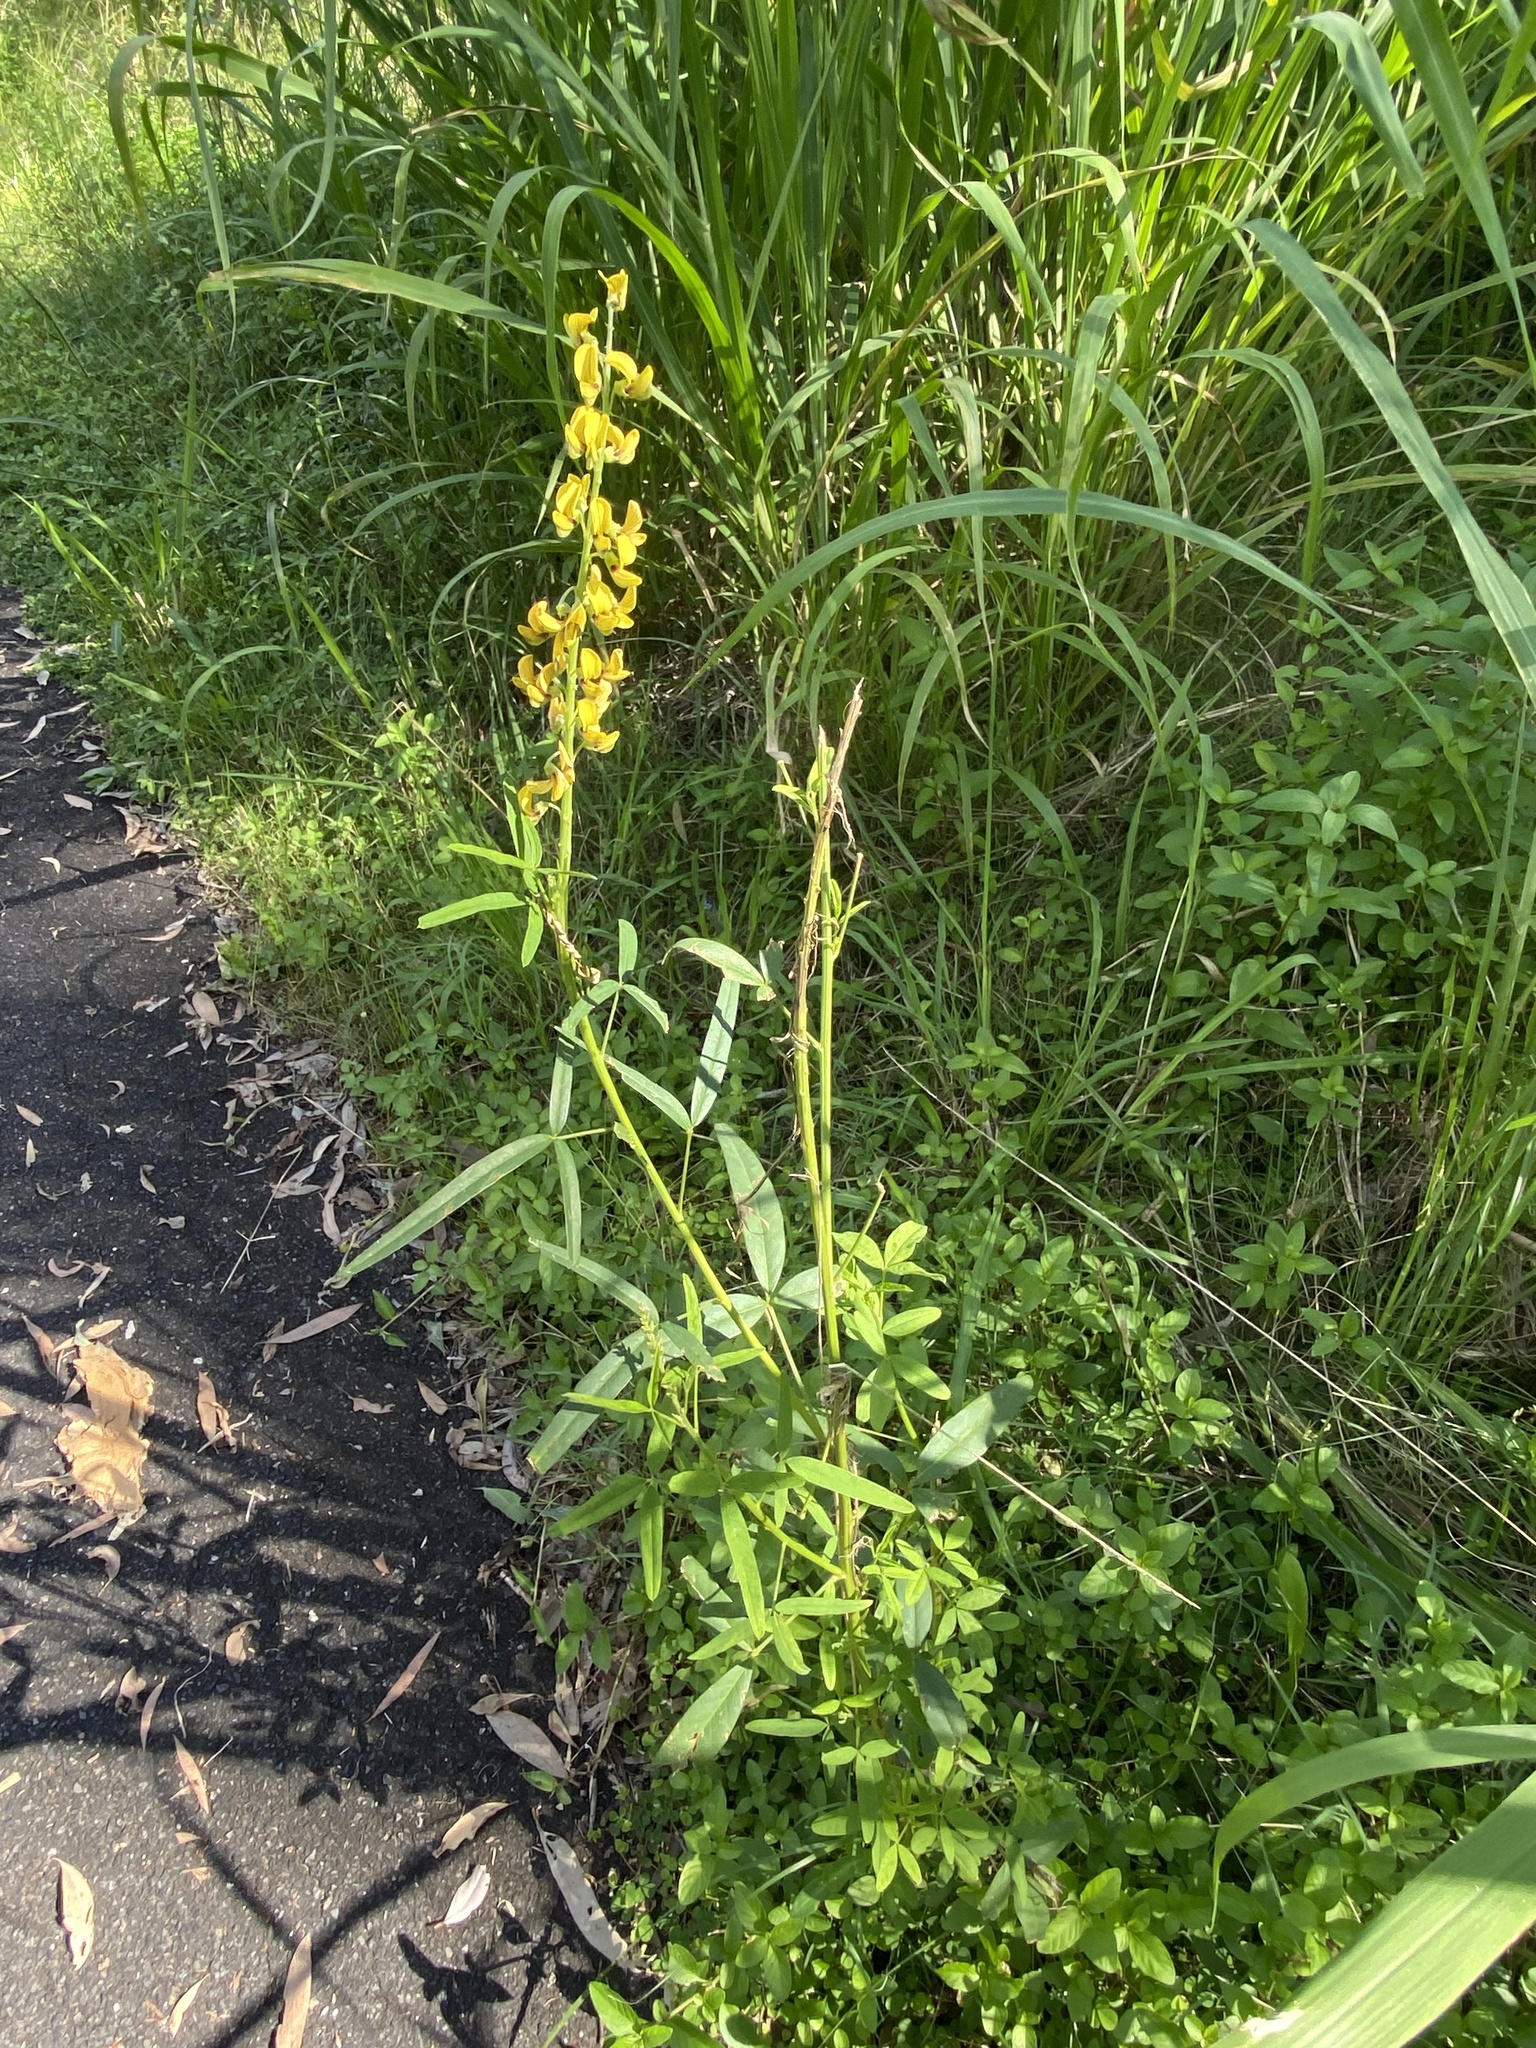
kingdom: Plantae
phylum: Tracheophyta
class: Magnoliopsida
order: Fabales
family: Fabaceae
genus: Crotalaria
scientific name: Crotalaria lanceolata
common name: Lanceleaf rattlebox
